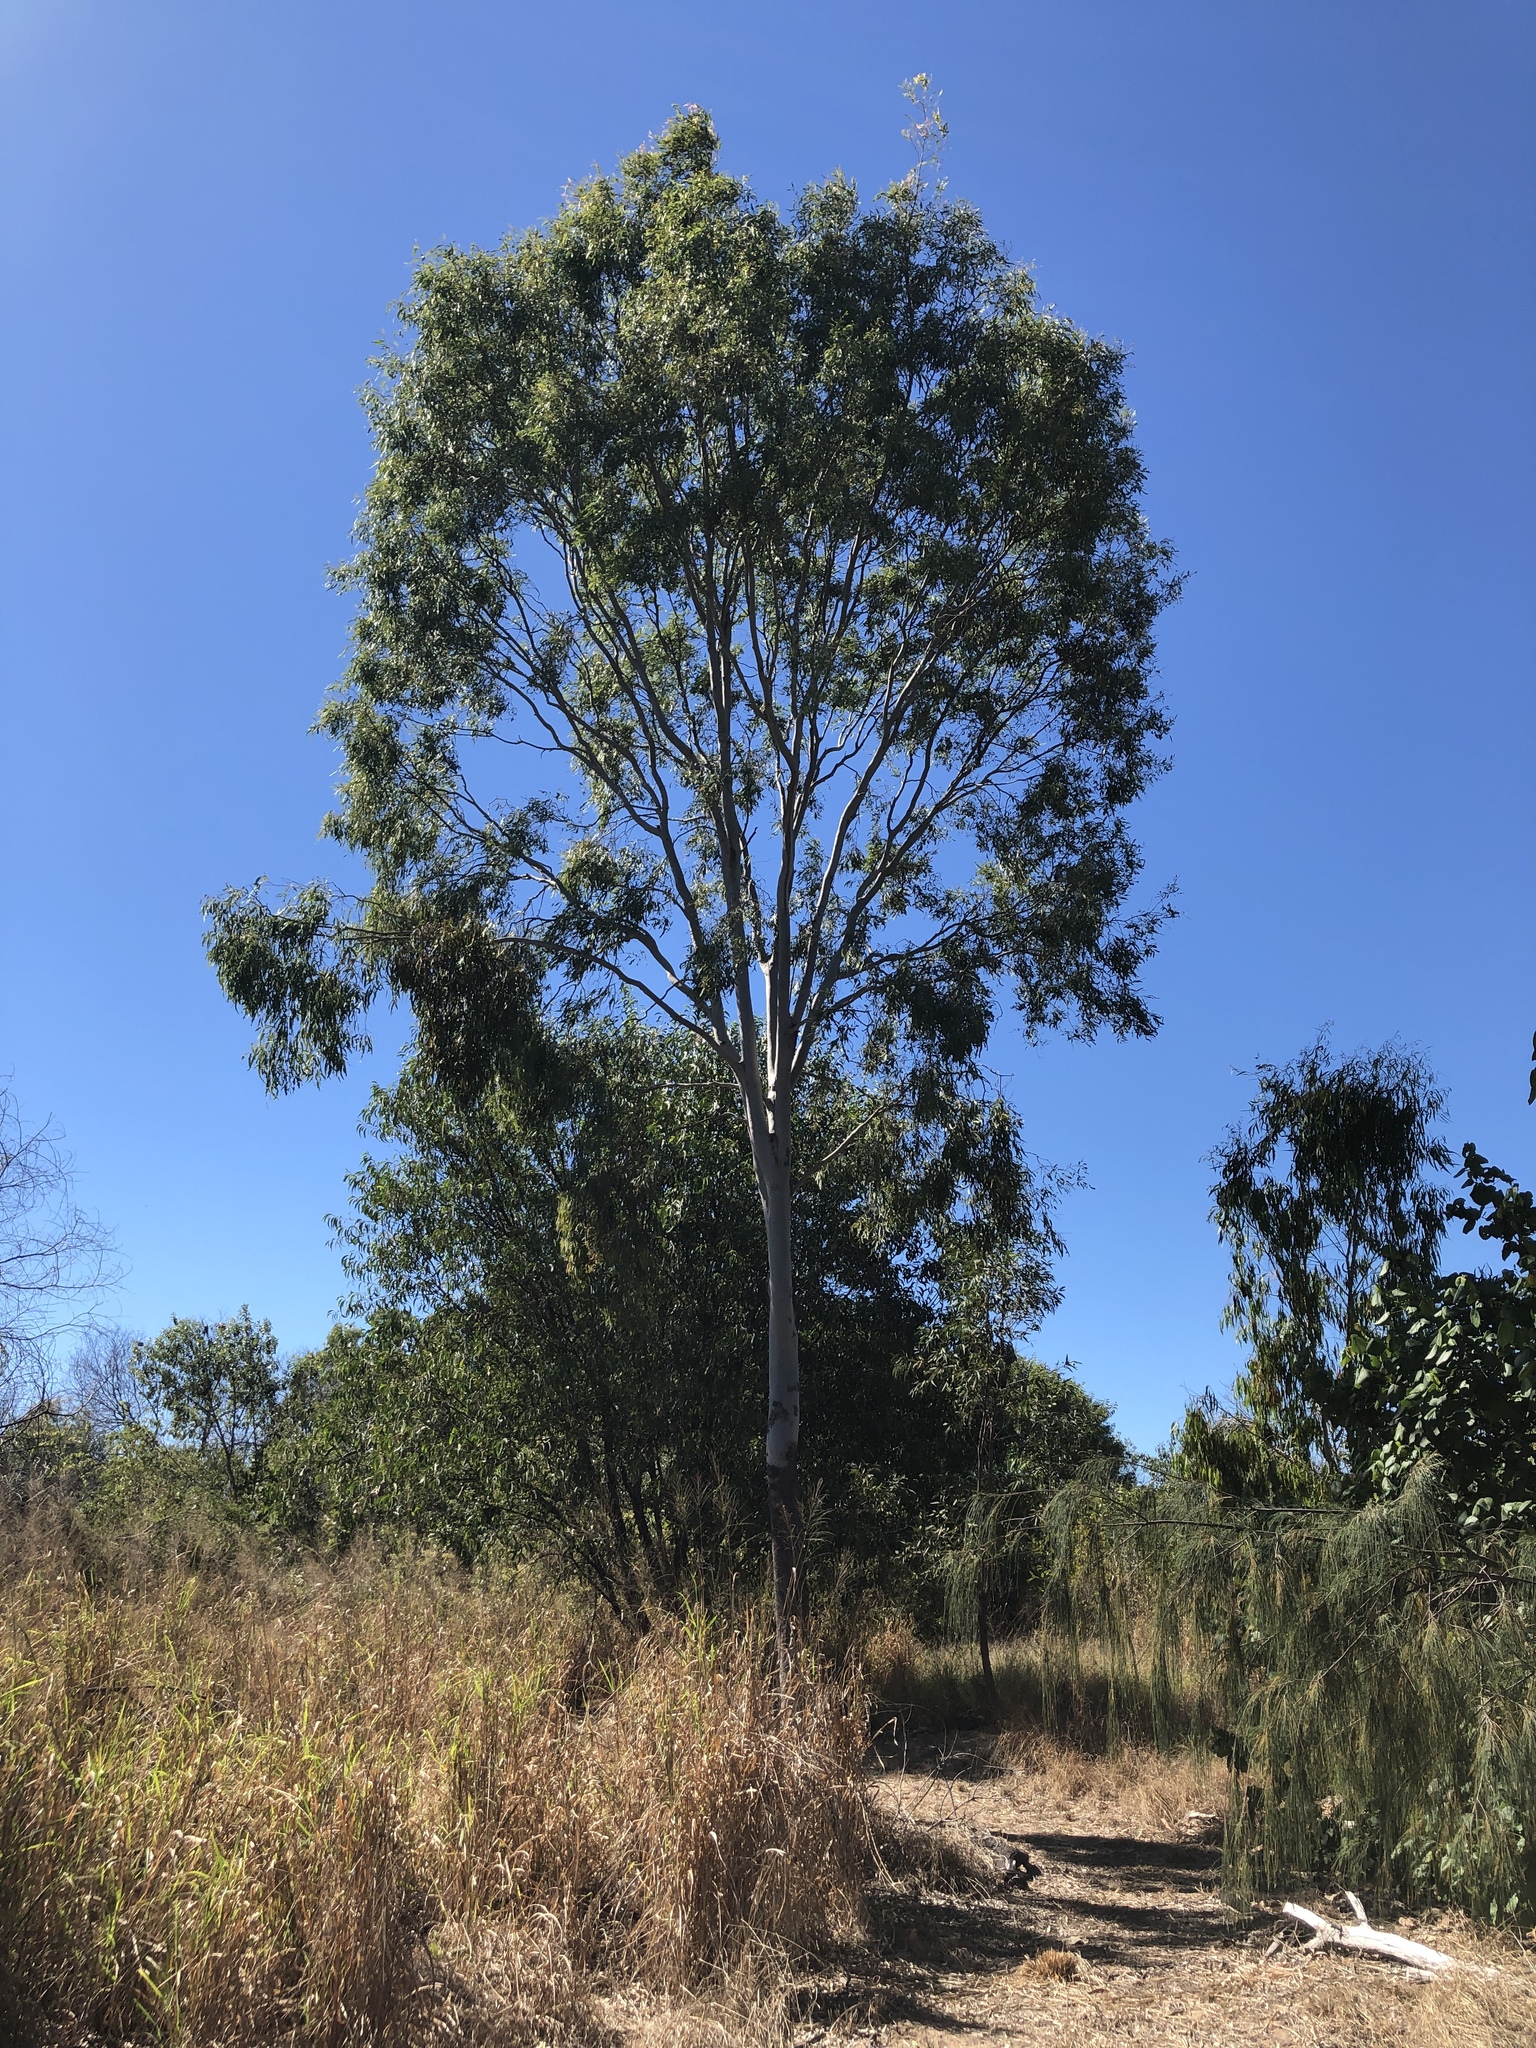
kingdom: Plantae
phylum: Tracheophyta
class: Magnoliopsida
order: Myrtales
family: Myrtaceae
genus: Corymbia
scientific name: Corymbia tessellaris
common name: Carbeen
